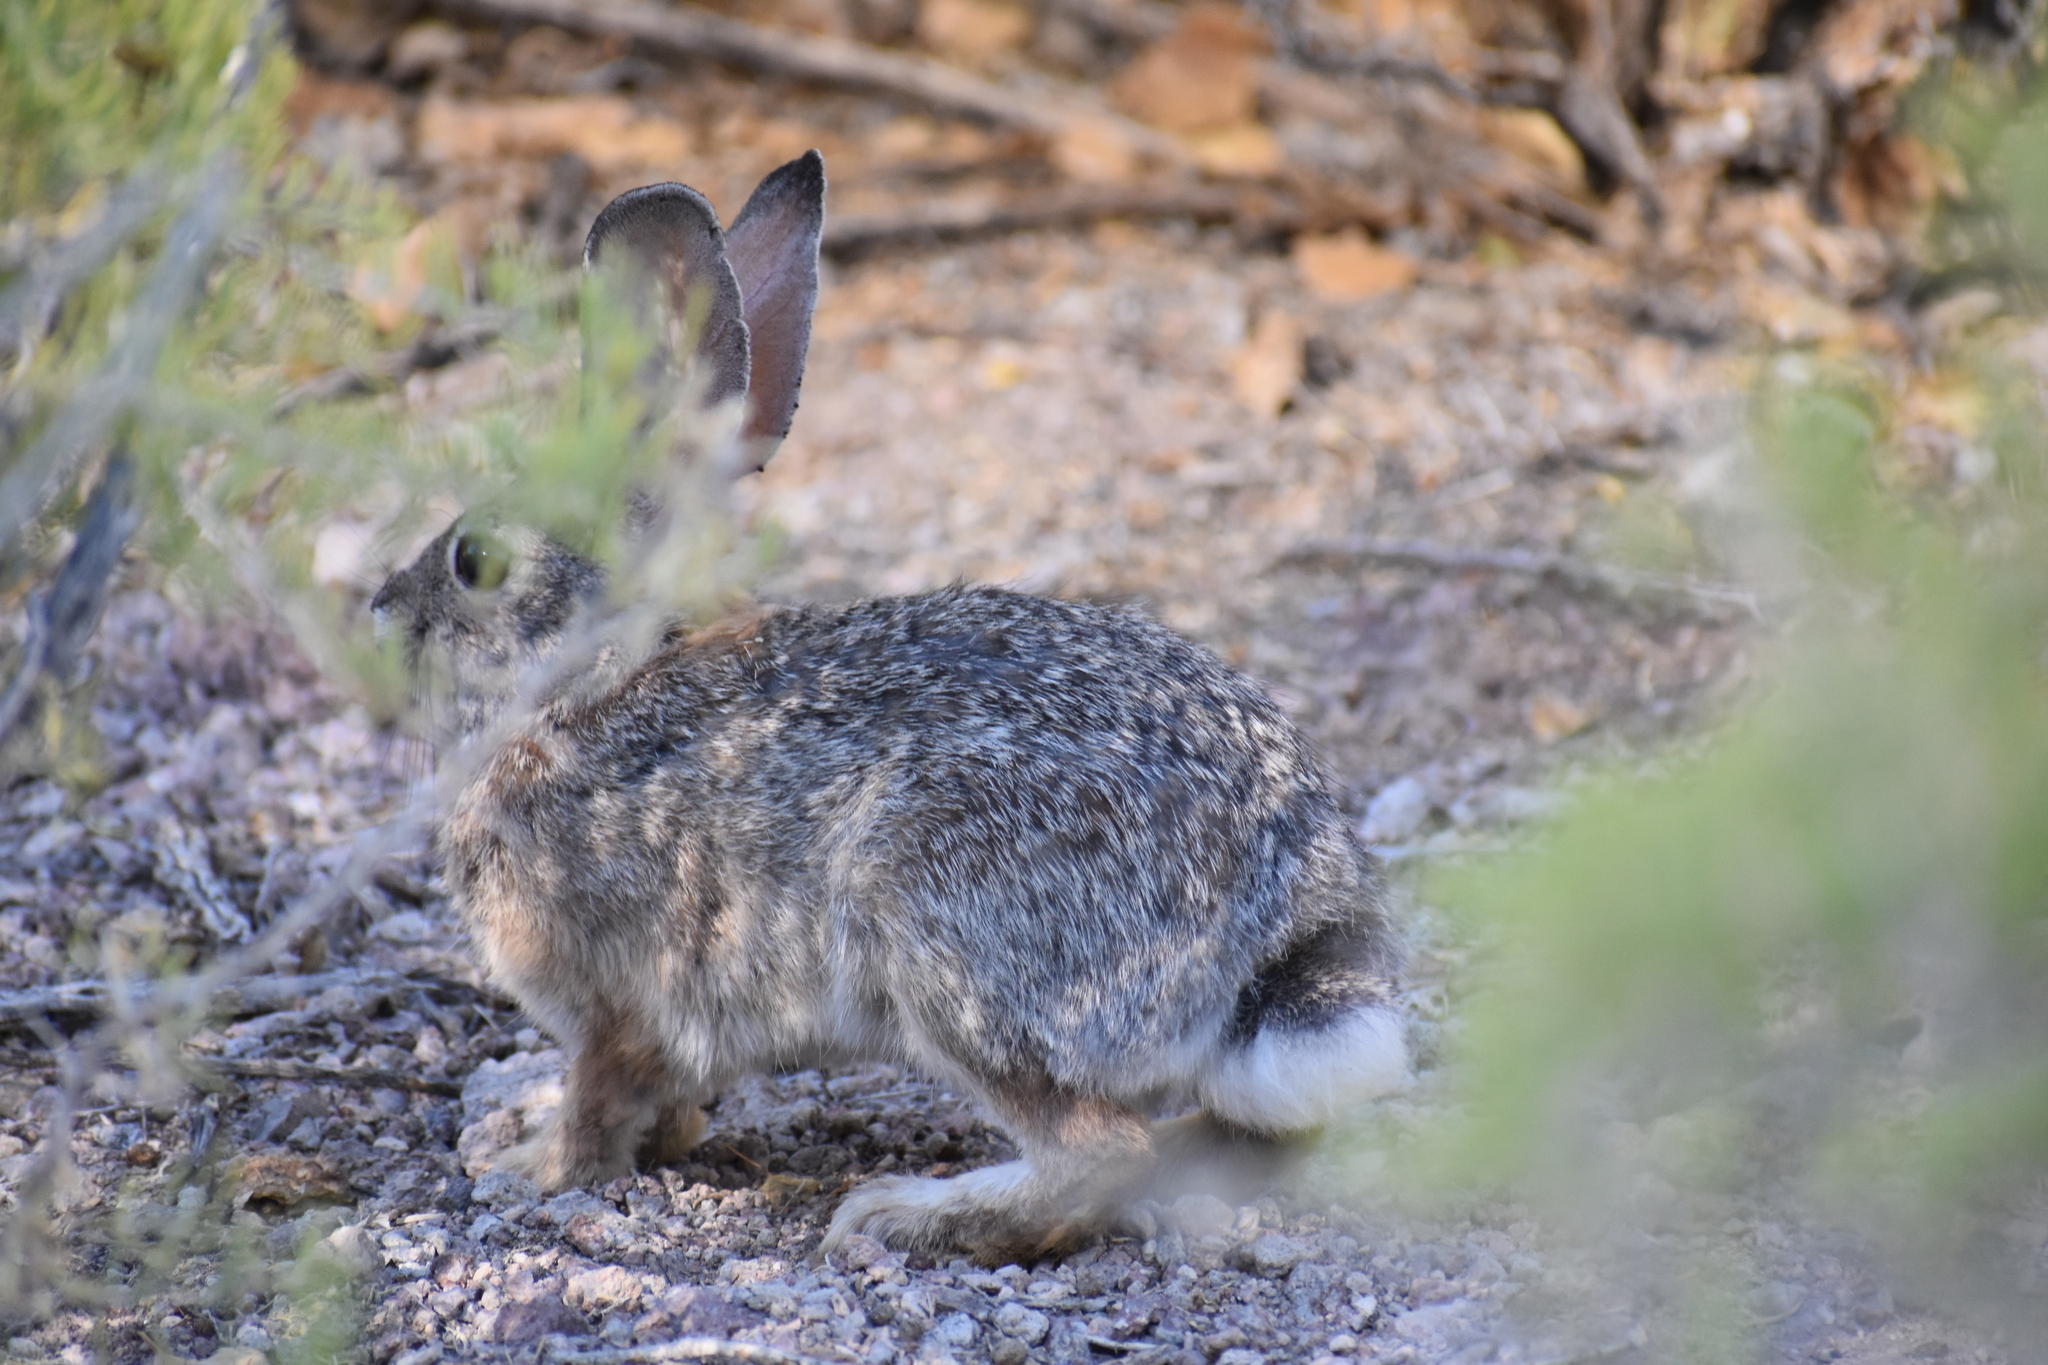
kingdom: Animalia
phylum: Chordata
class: Mammalia
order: Lagomorpha
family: Leporidae
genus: Sylvilagus
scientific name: Sylvilagus audubonii
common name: Desert cottontail
